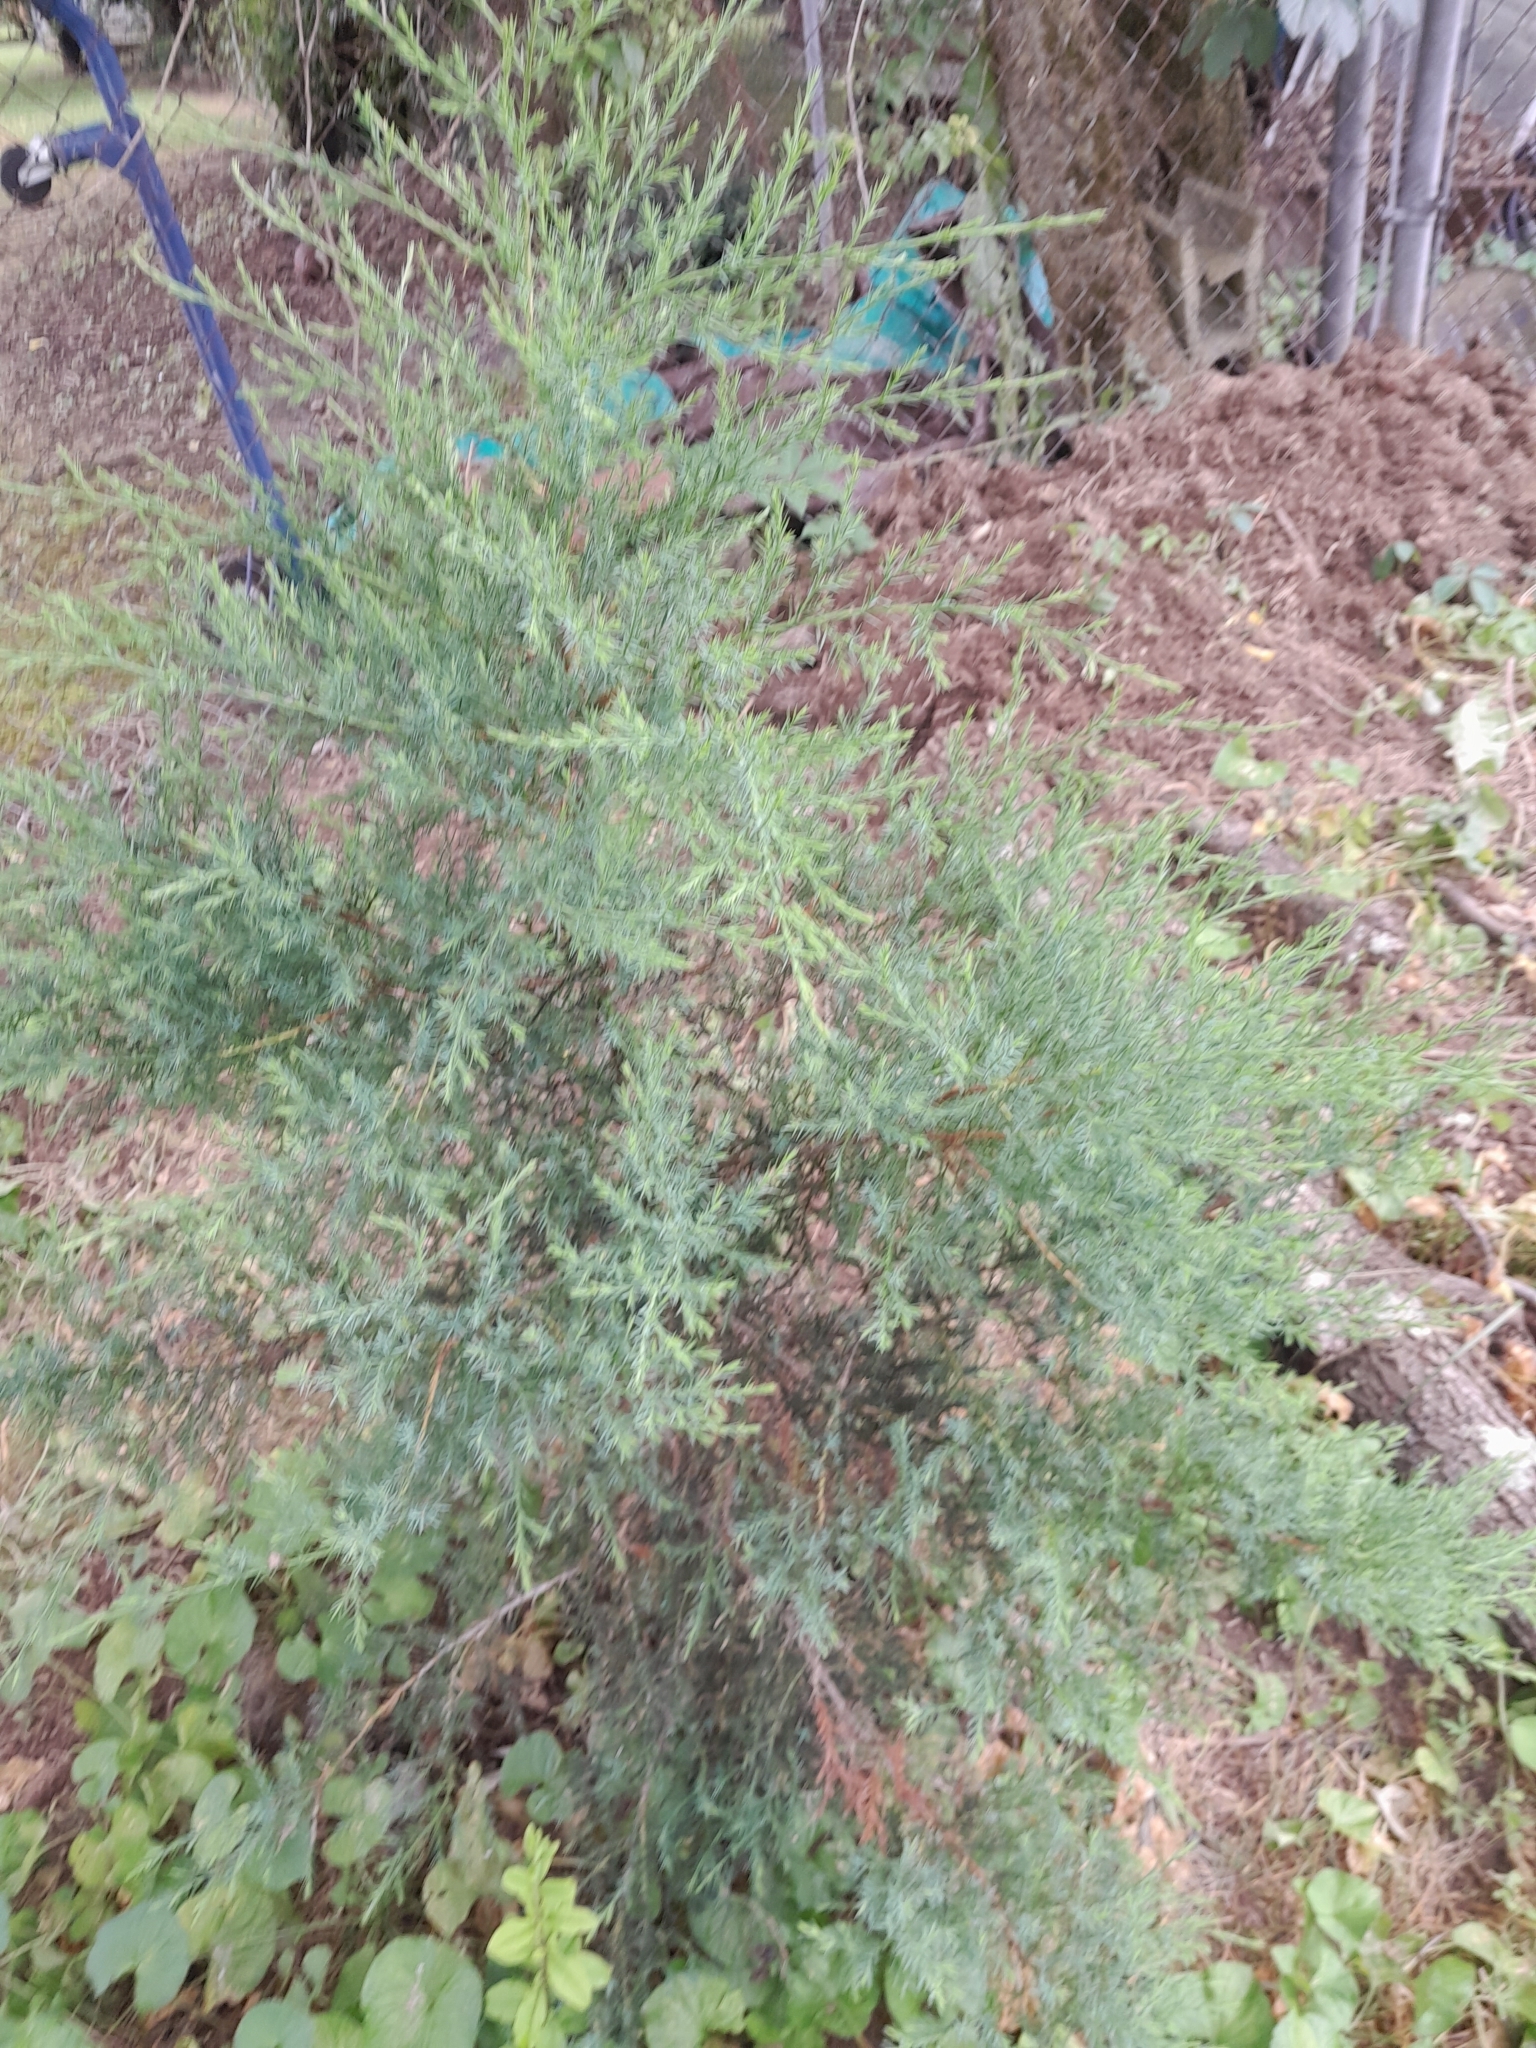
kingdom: Plantae
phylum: Tracheophyta
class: Pinopsida
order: Pinales
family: Cupressaceae
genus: Juniperus
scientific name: Juniperus virginiana
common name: Red juniper
